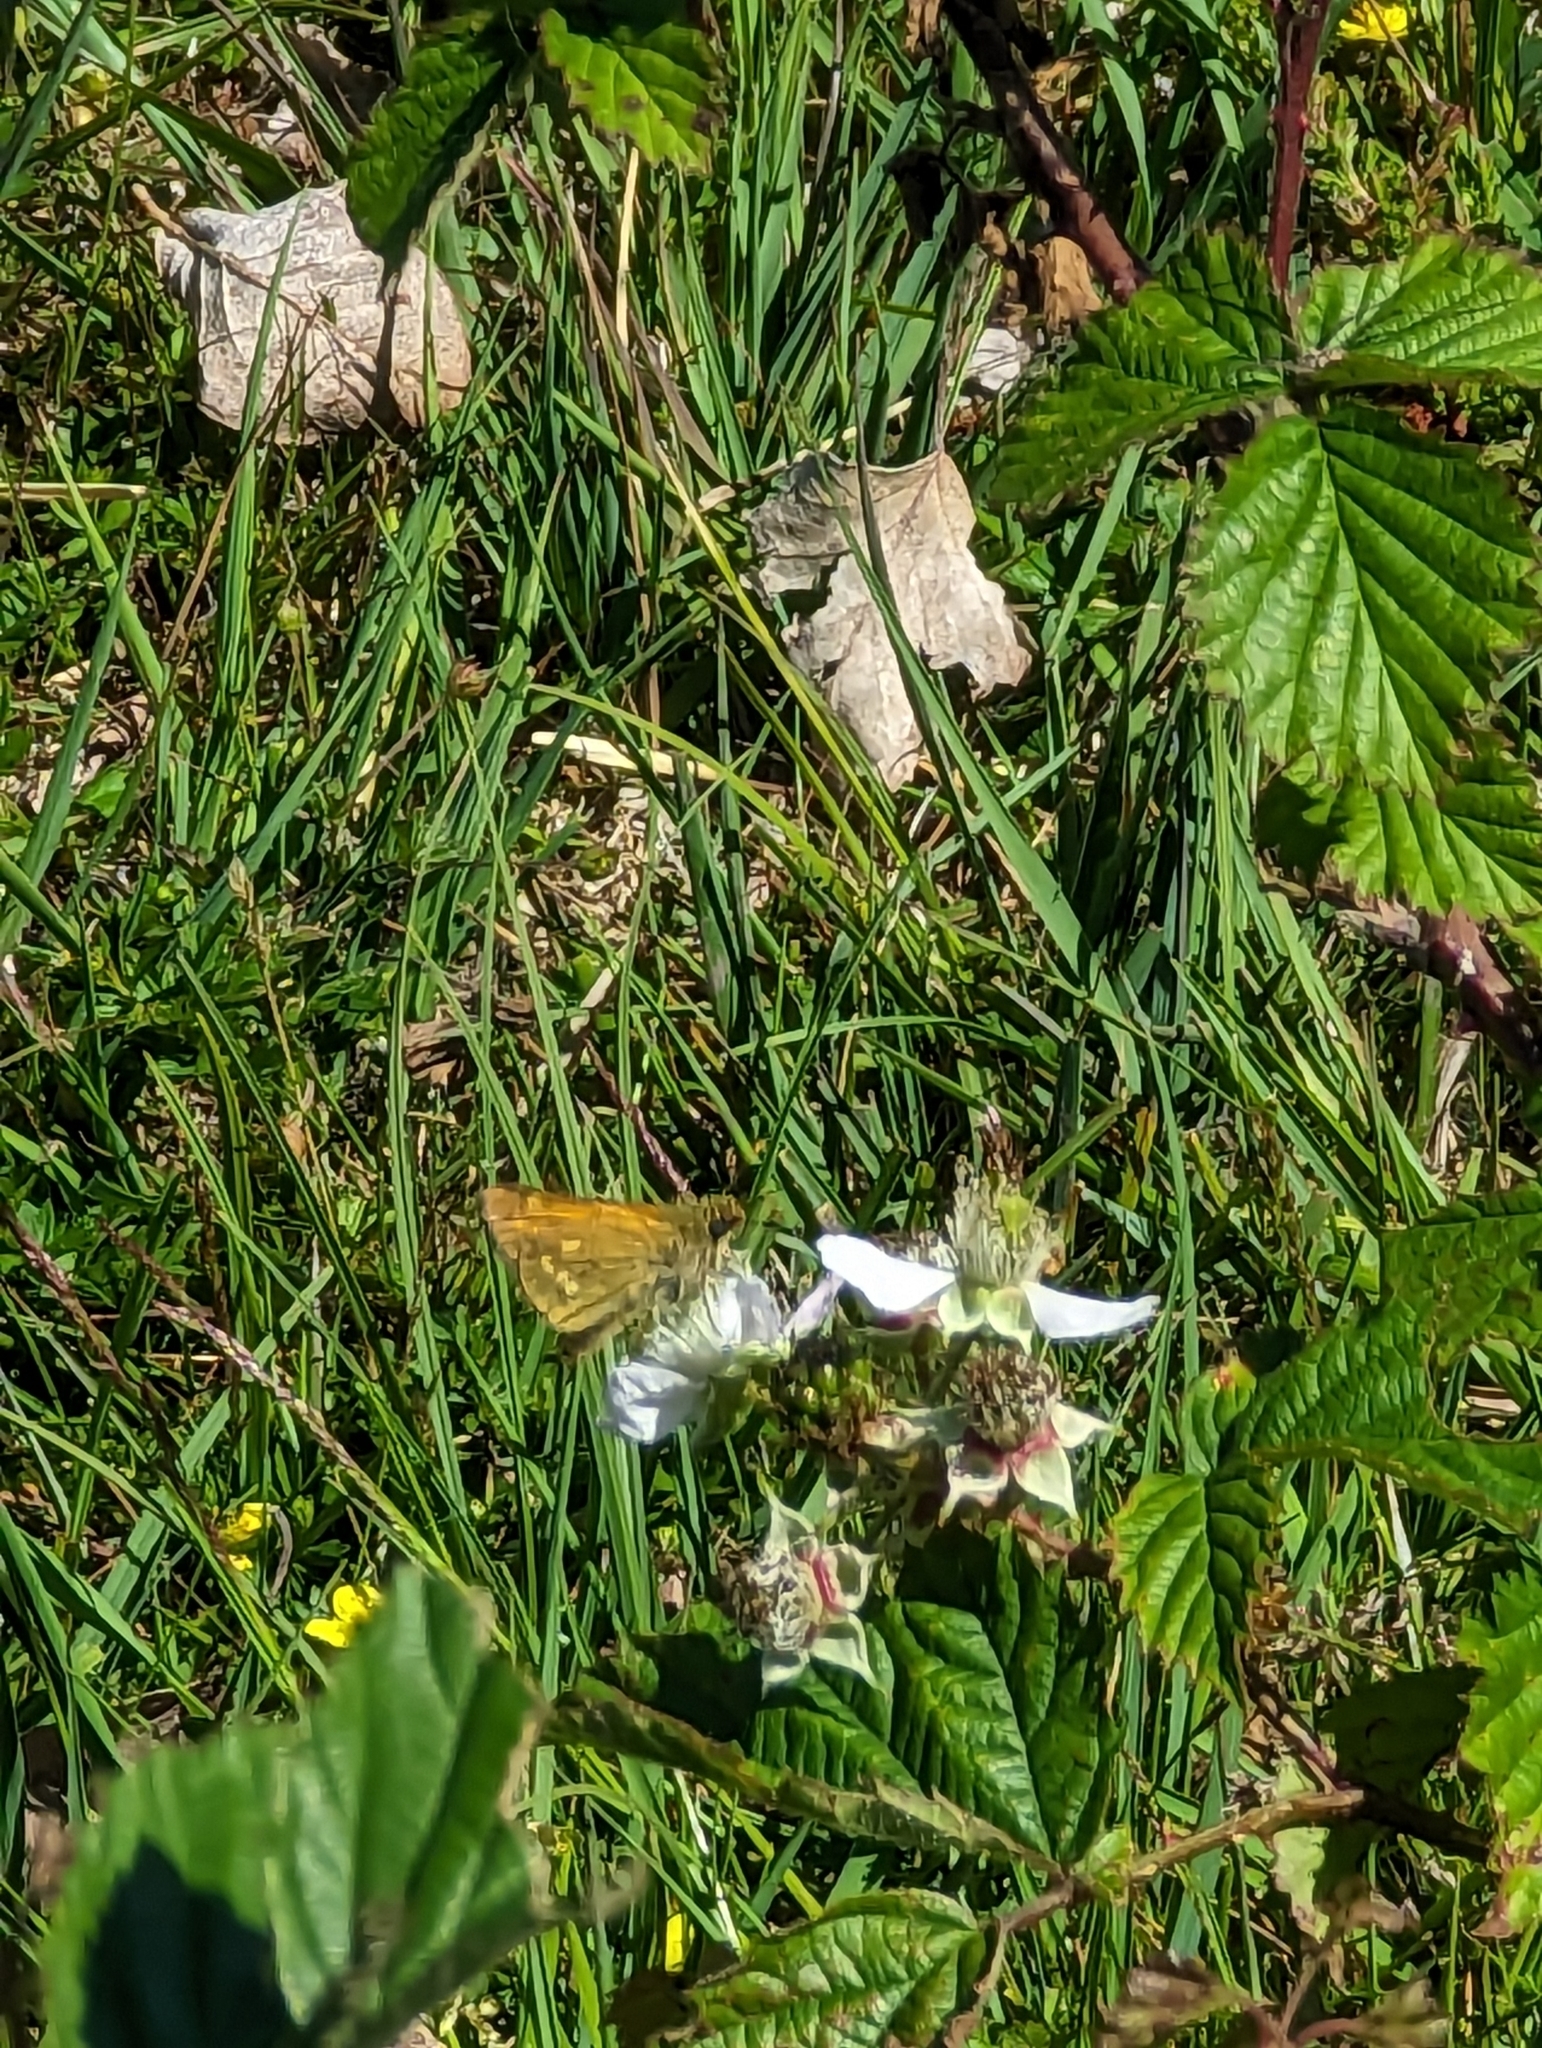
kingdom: Animalia
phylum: Arthropoda
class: Insecta
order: Lepidoptera
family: Hesperiidae
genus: Ochlodes
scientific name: Ochlodes venata
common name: Large skipper
